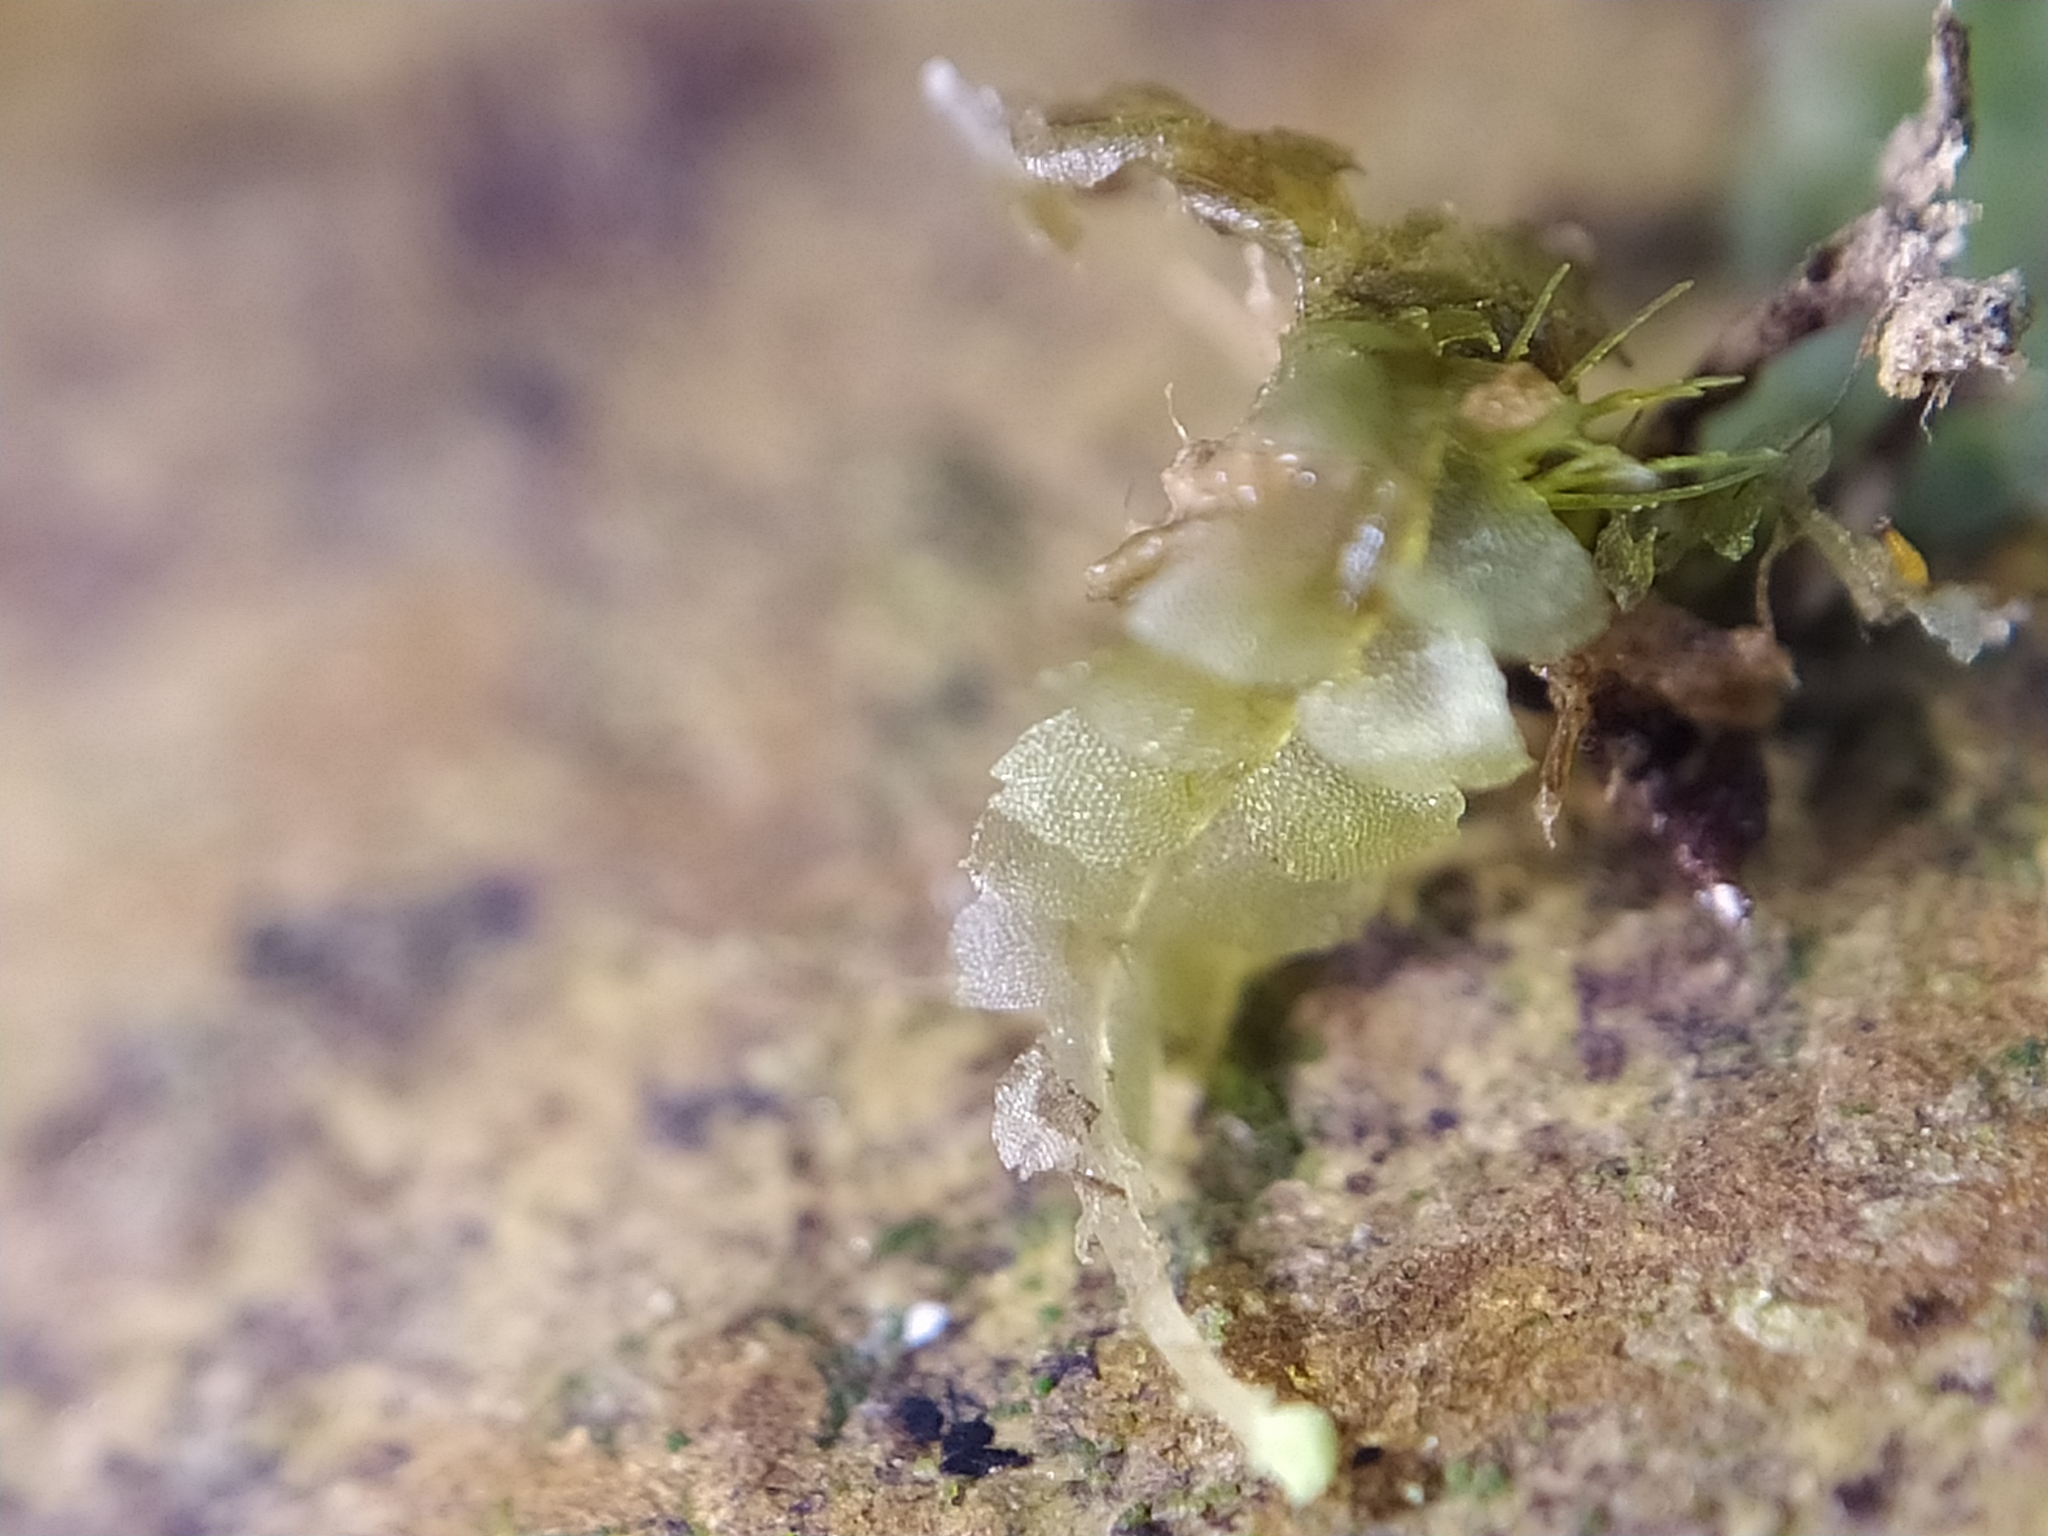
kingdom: Plantae
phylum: Marchantiophyta
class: Jungermanniopsida
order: Jungermanniales
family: Calypogeiaceae
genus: Calypogeia
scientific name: Calypogeia fissa
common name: Common pouchwort
